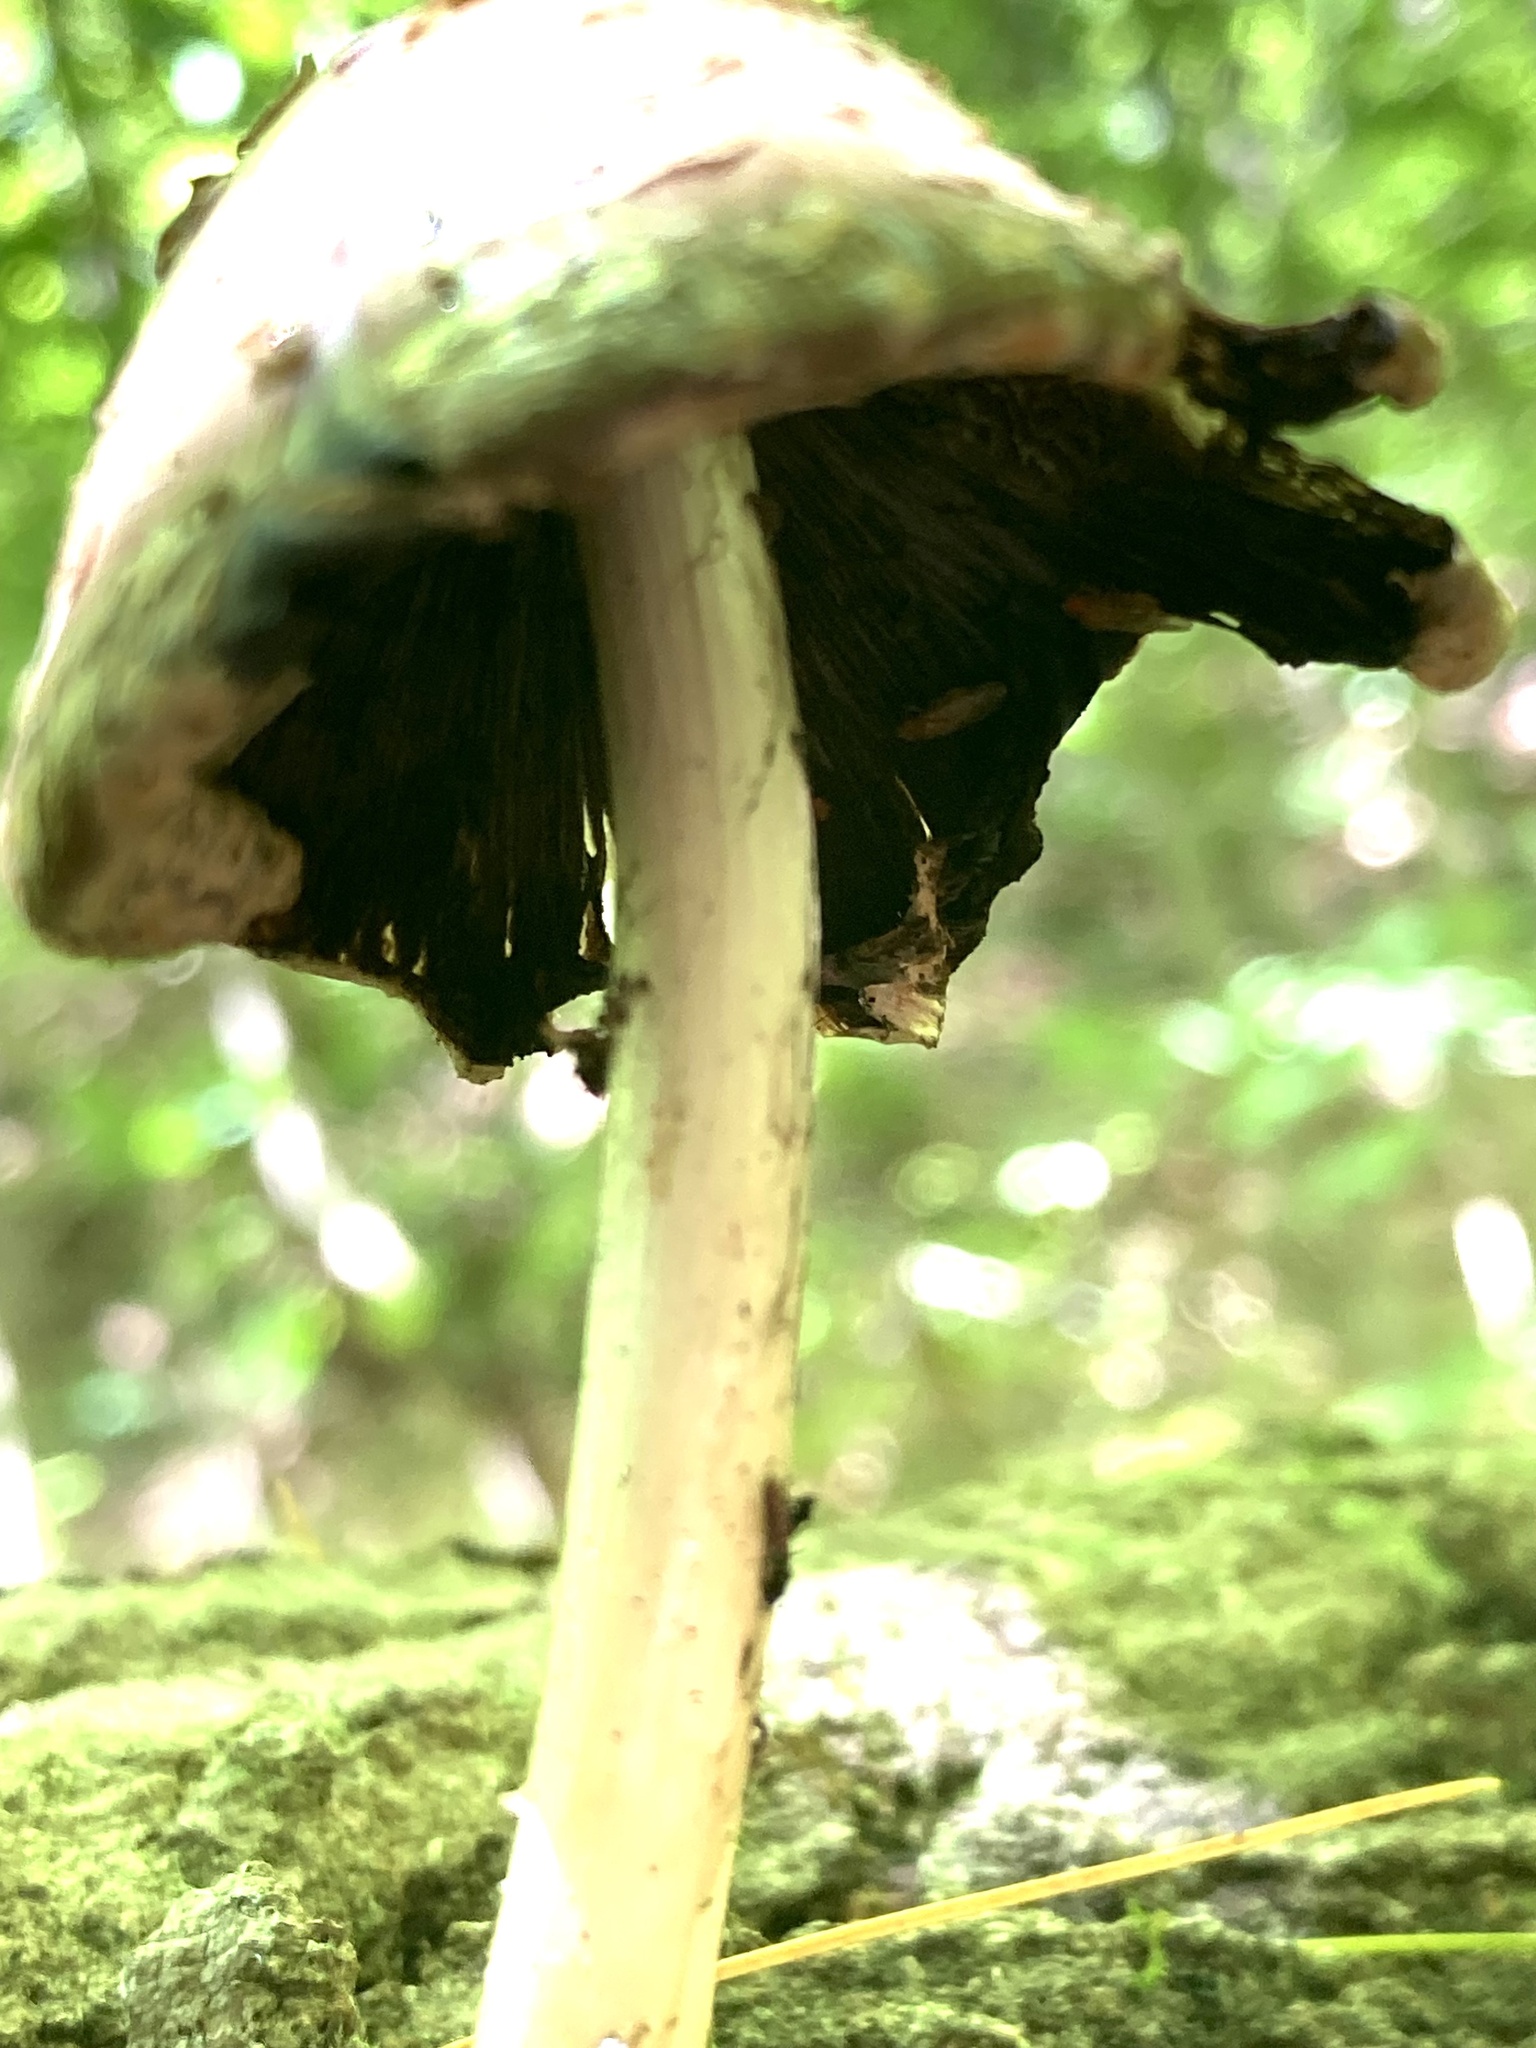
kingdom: Fungi
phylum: Basidiomycota
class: Agaricomycetes
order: Agaricales
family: Psathyrellaceae
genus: Coprinopsis
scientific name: Coprinopsis variegata
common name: Scaly ink cap
